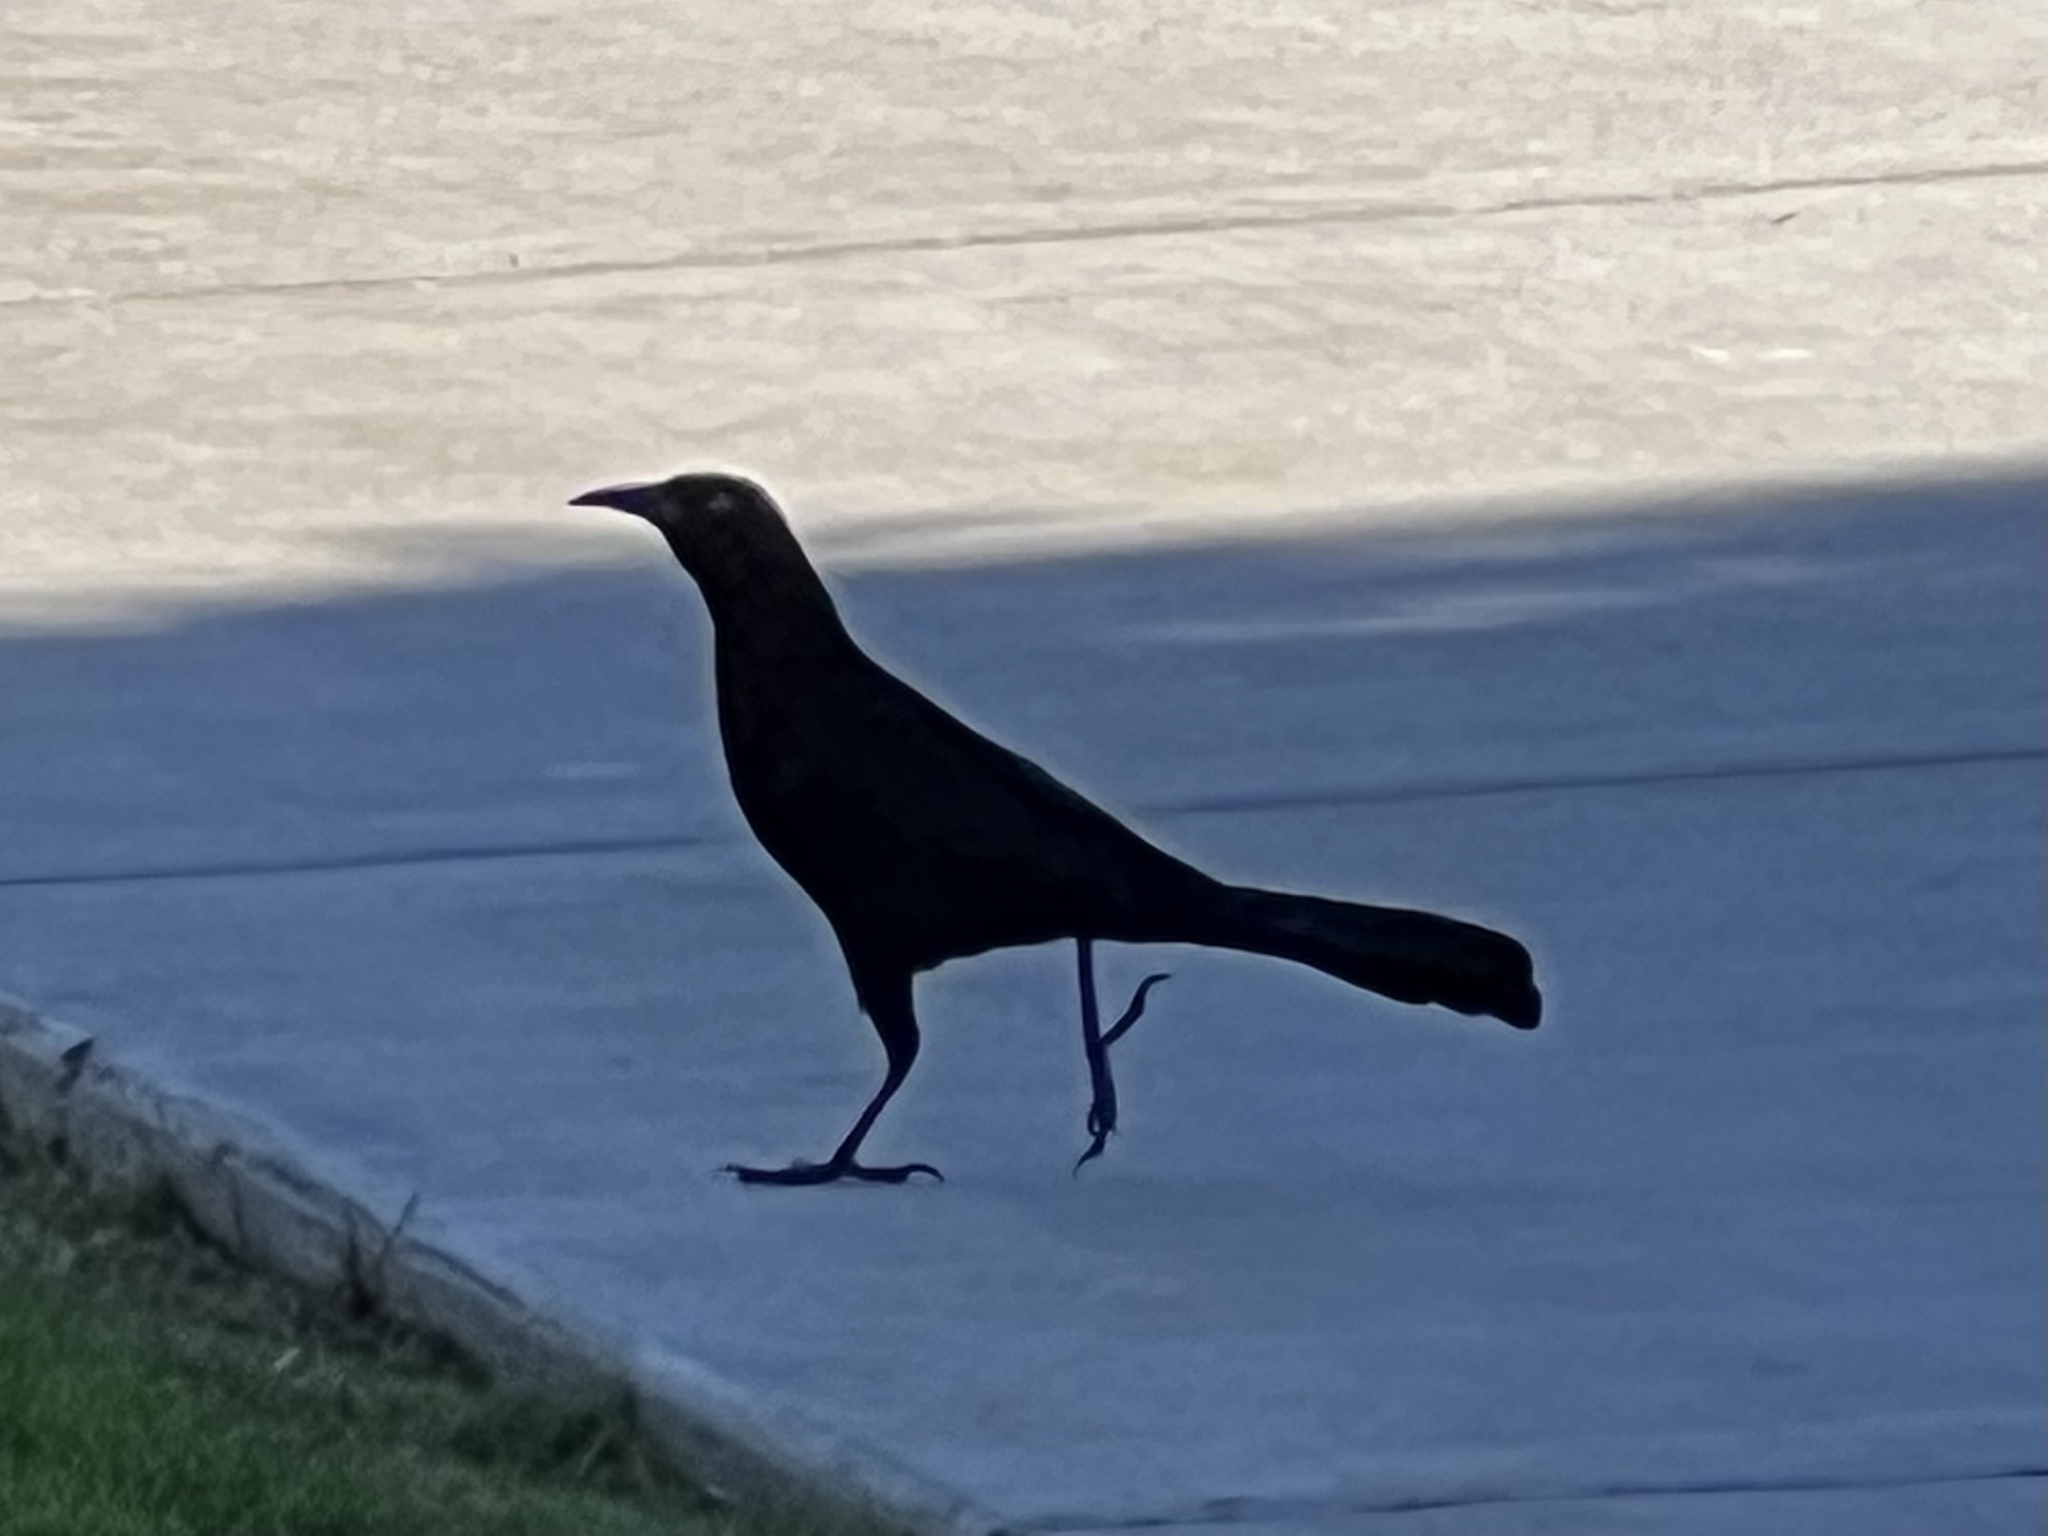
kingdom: Animalia
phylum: Chordata
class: Aves
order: Passeriformes
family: Icteridae
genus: Quiscalus
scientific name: Quiscalus mexicanus
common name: Great-tailed grackle
